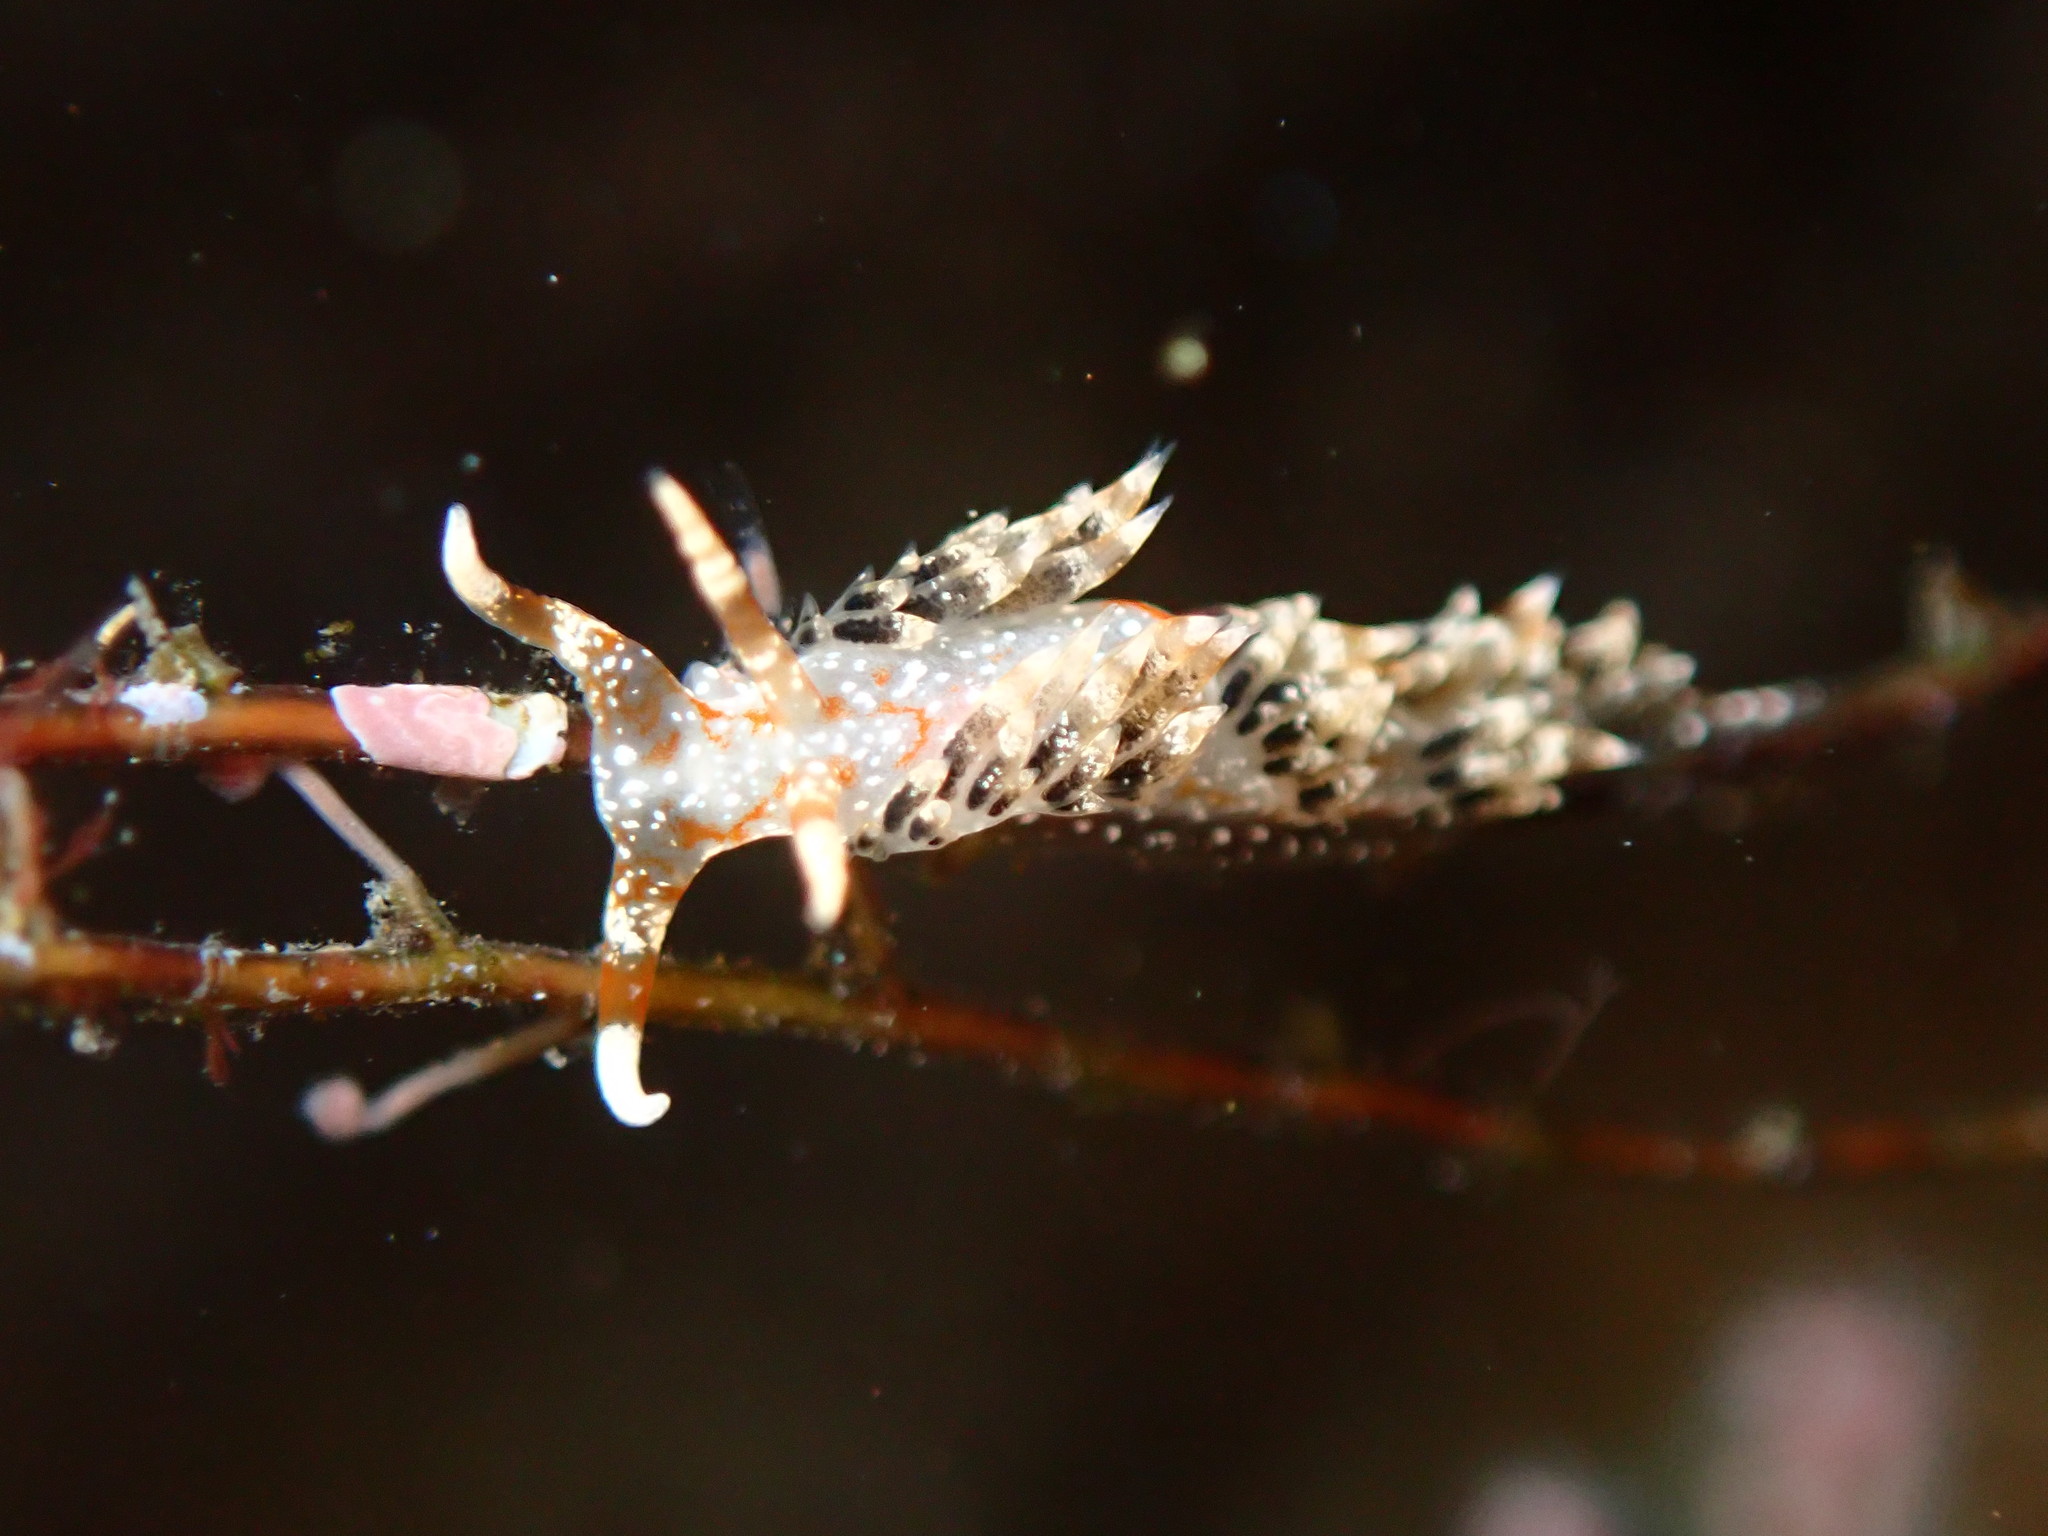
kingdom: Animalia
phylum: Mollusca
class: Gastropoda
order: Nudibranchia
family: Facelinidae
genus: Phidiana
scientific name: Phidiana semidecora
